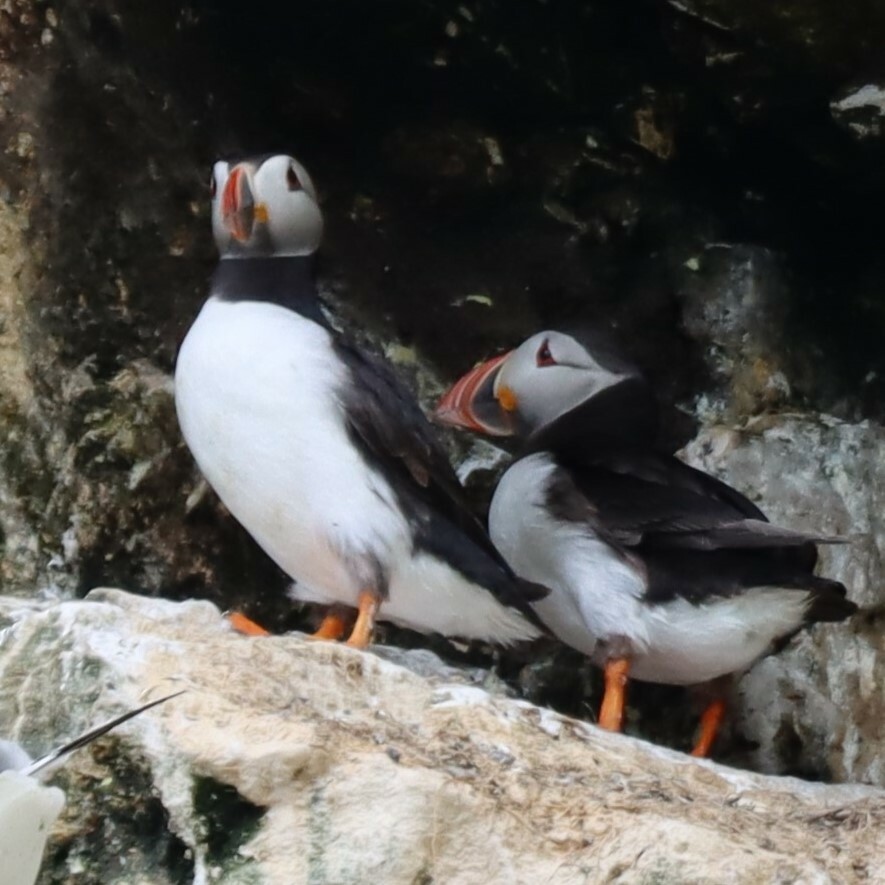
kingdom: Animalia
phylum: Chordata
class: Aves
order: Charadriiformes
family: Alcidae
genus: Fratercula
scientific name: Fratercula arctica
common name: Atlantic puffin
